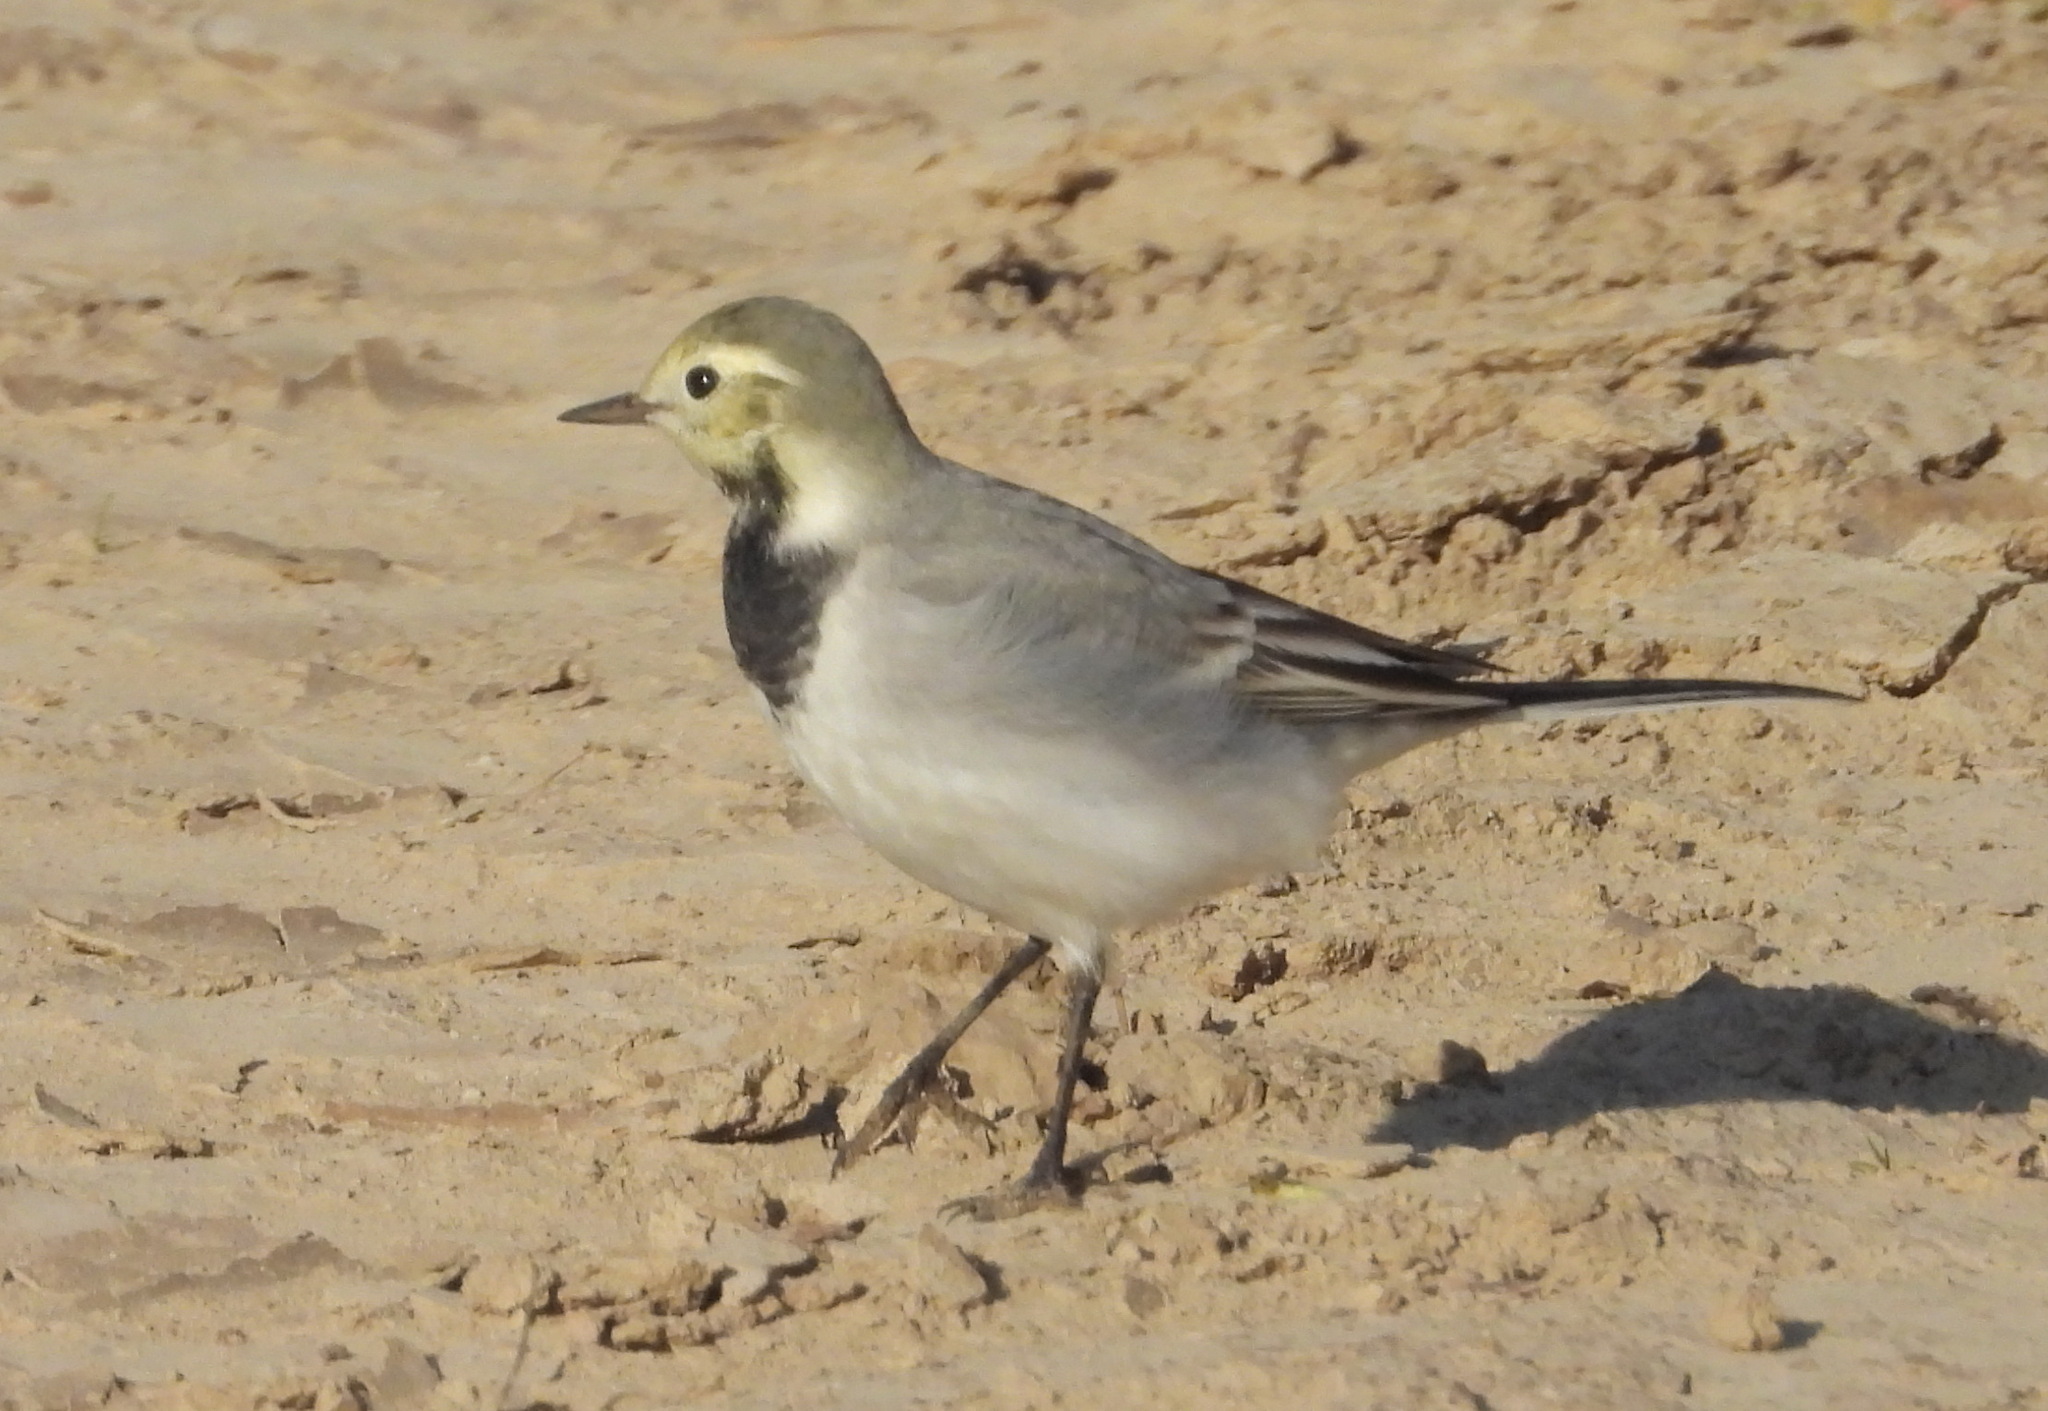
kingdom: Animalia
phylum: Chordata
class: Aves
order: Passeriformes
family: Motacillidae
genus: Motacilla
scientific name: Motacilla alba
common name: White wagtail
